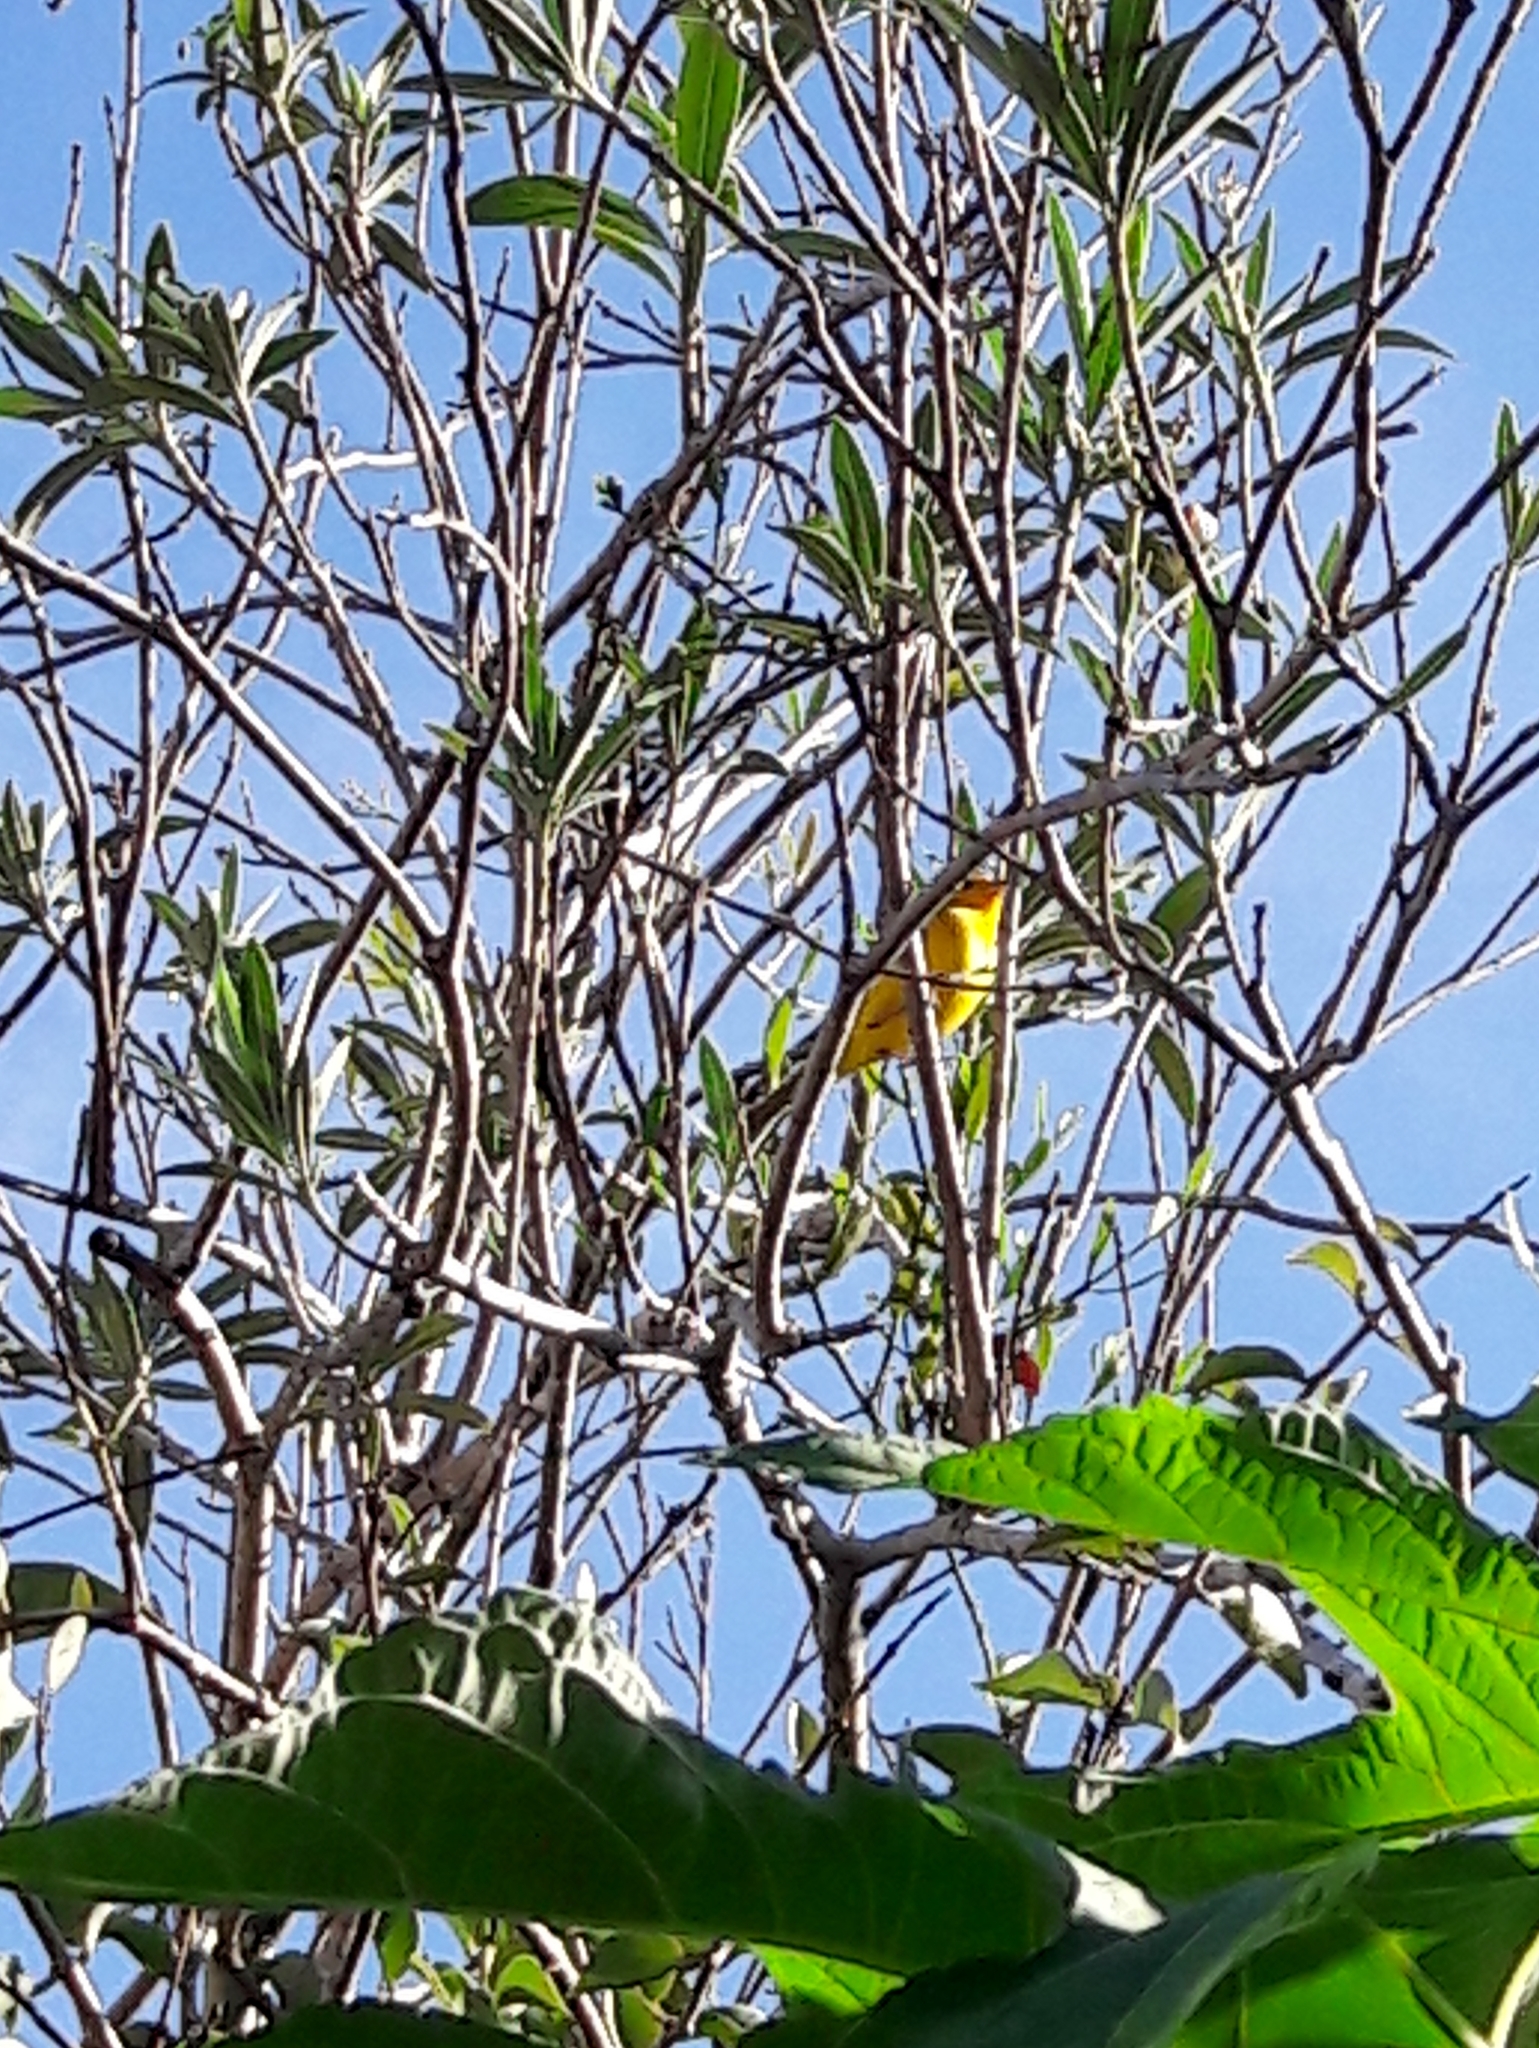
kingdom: Animalia
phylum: Chordata
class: Aves
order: Passeriformes
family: Thraupidae
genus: Sicalis
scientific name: Sicalis flaveola
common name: Saffron finch
